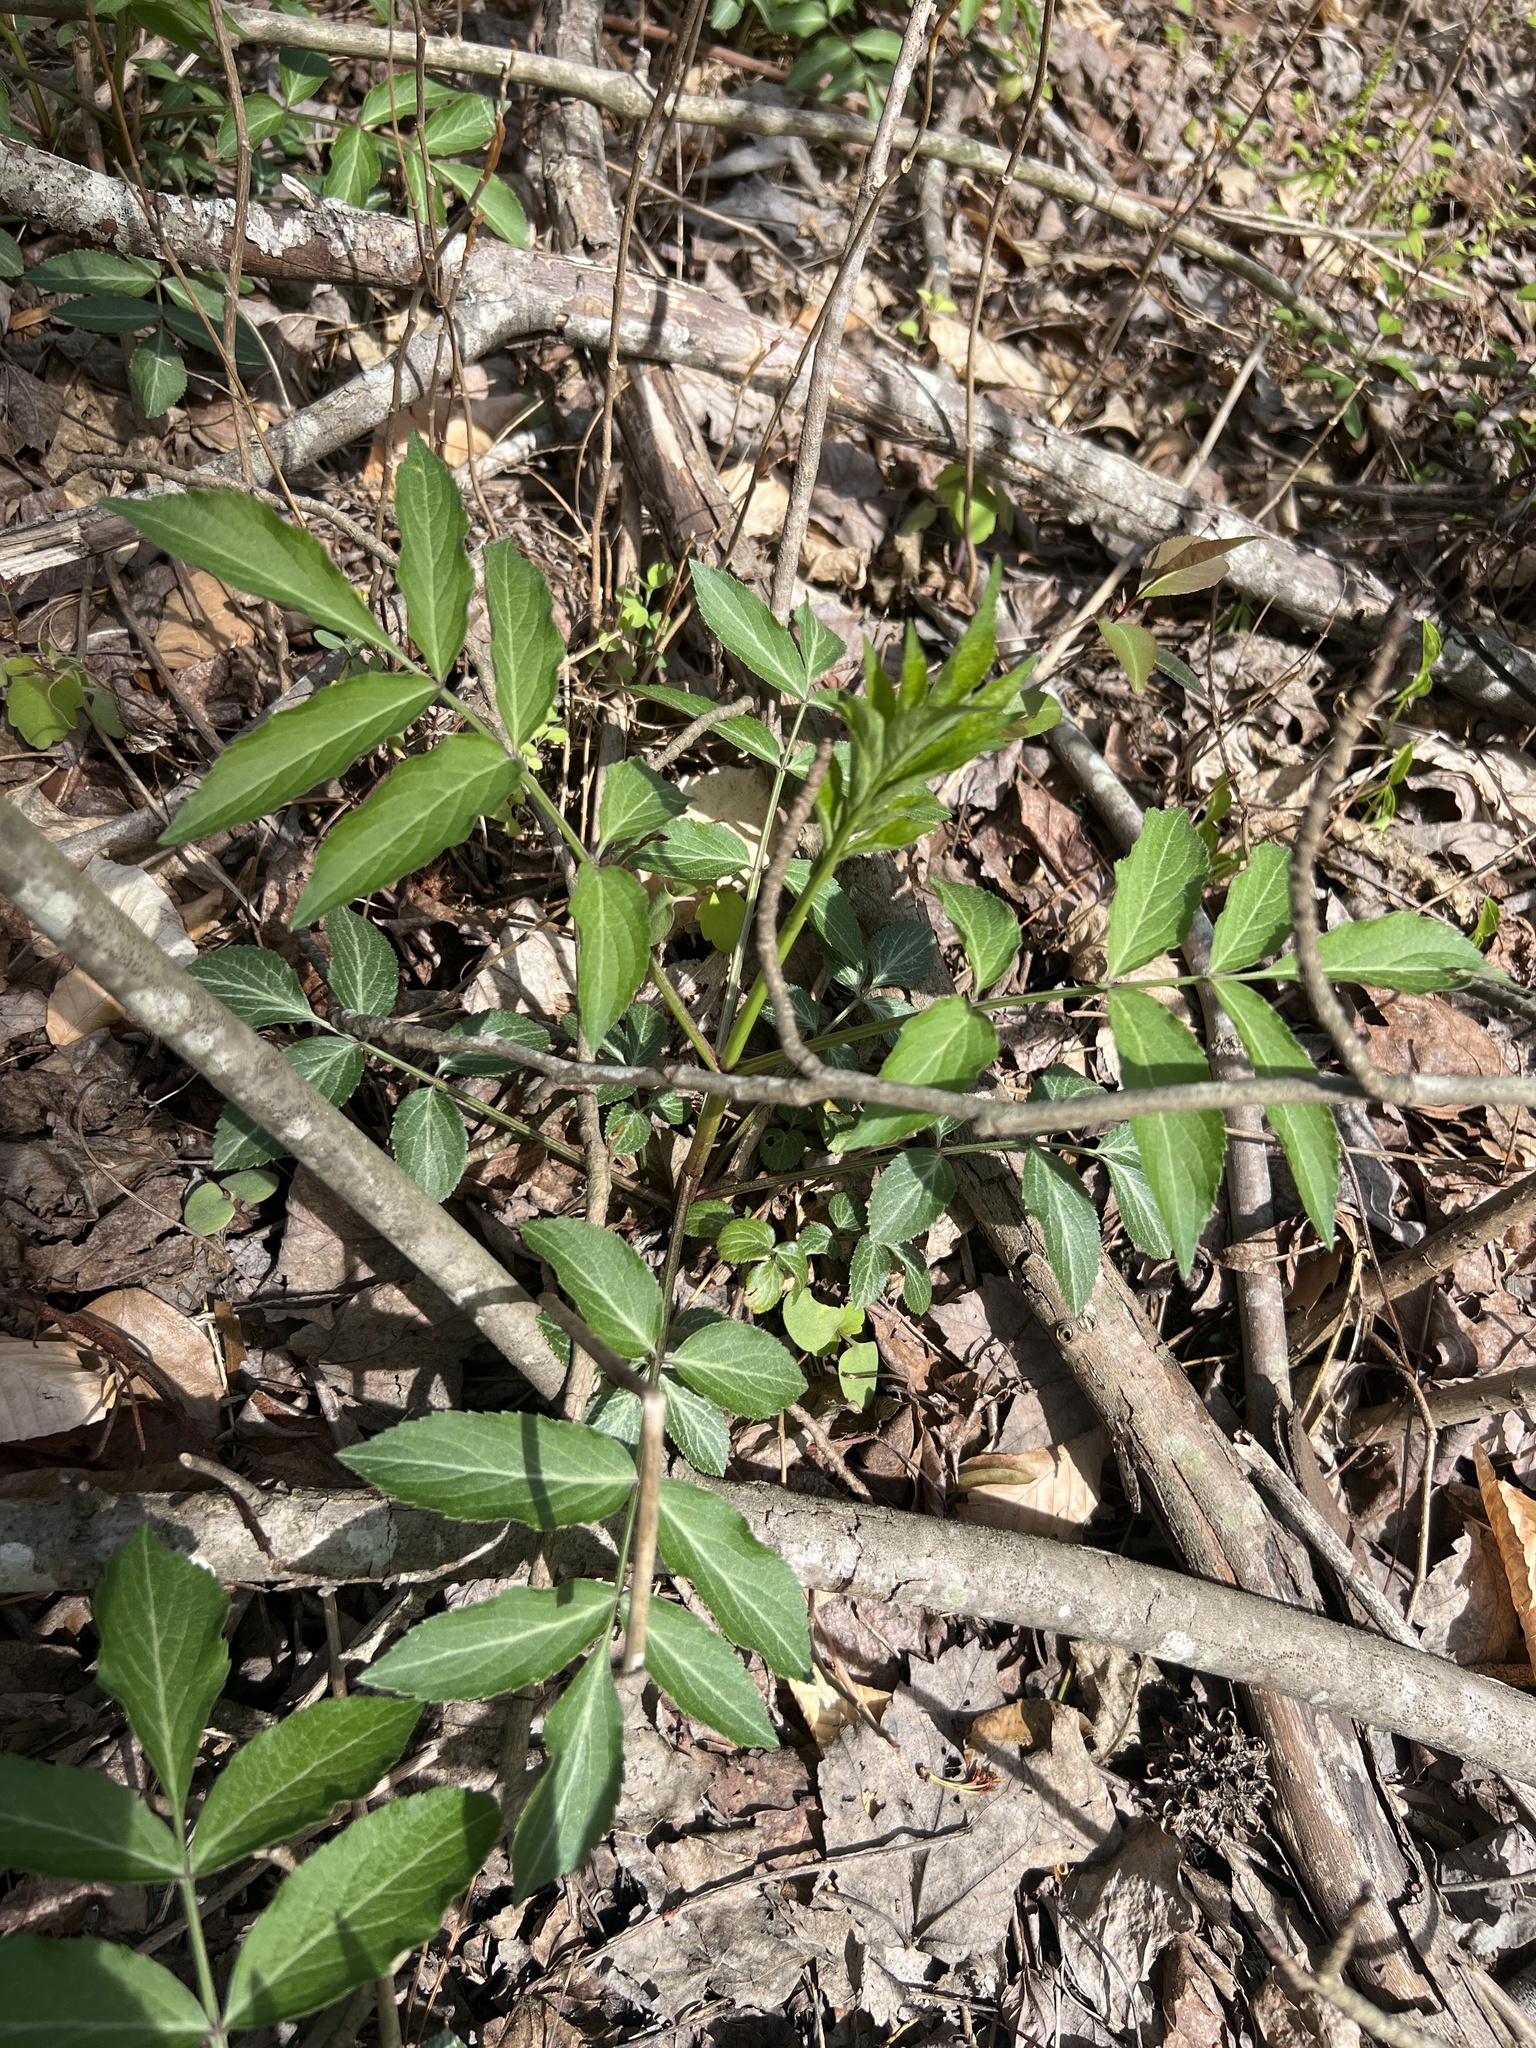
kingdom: Plantae
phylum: Tracheophyta
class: Magnoliopsida
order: Dipsacales
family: Viburnaceae
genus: Sambucus
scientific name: Sambucus canadensis
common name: American elder
